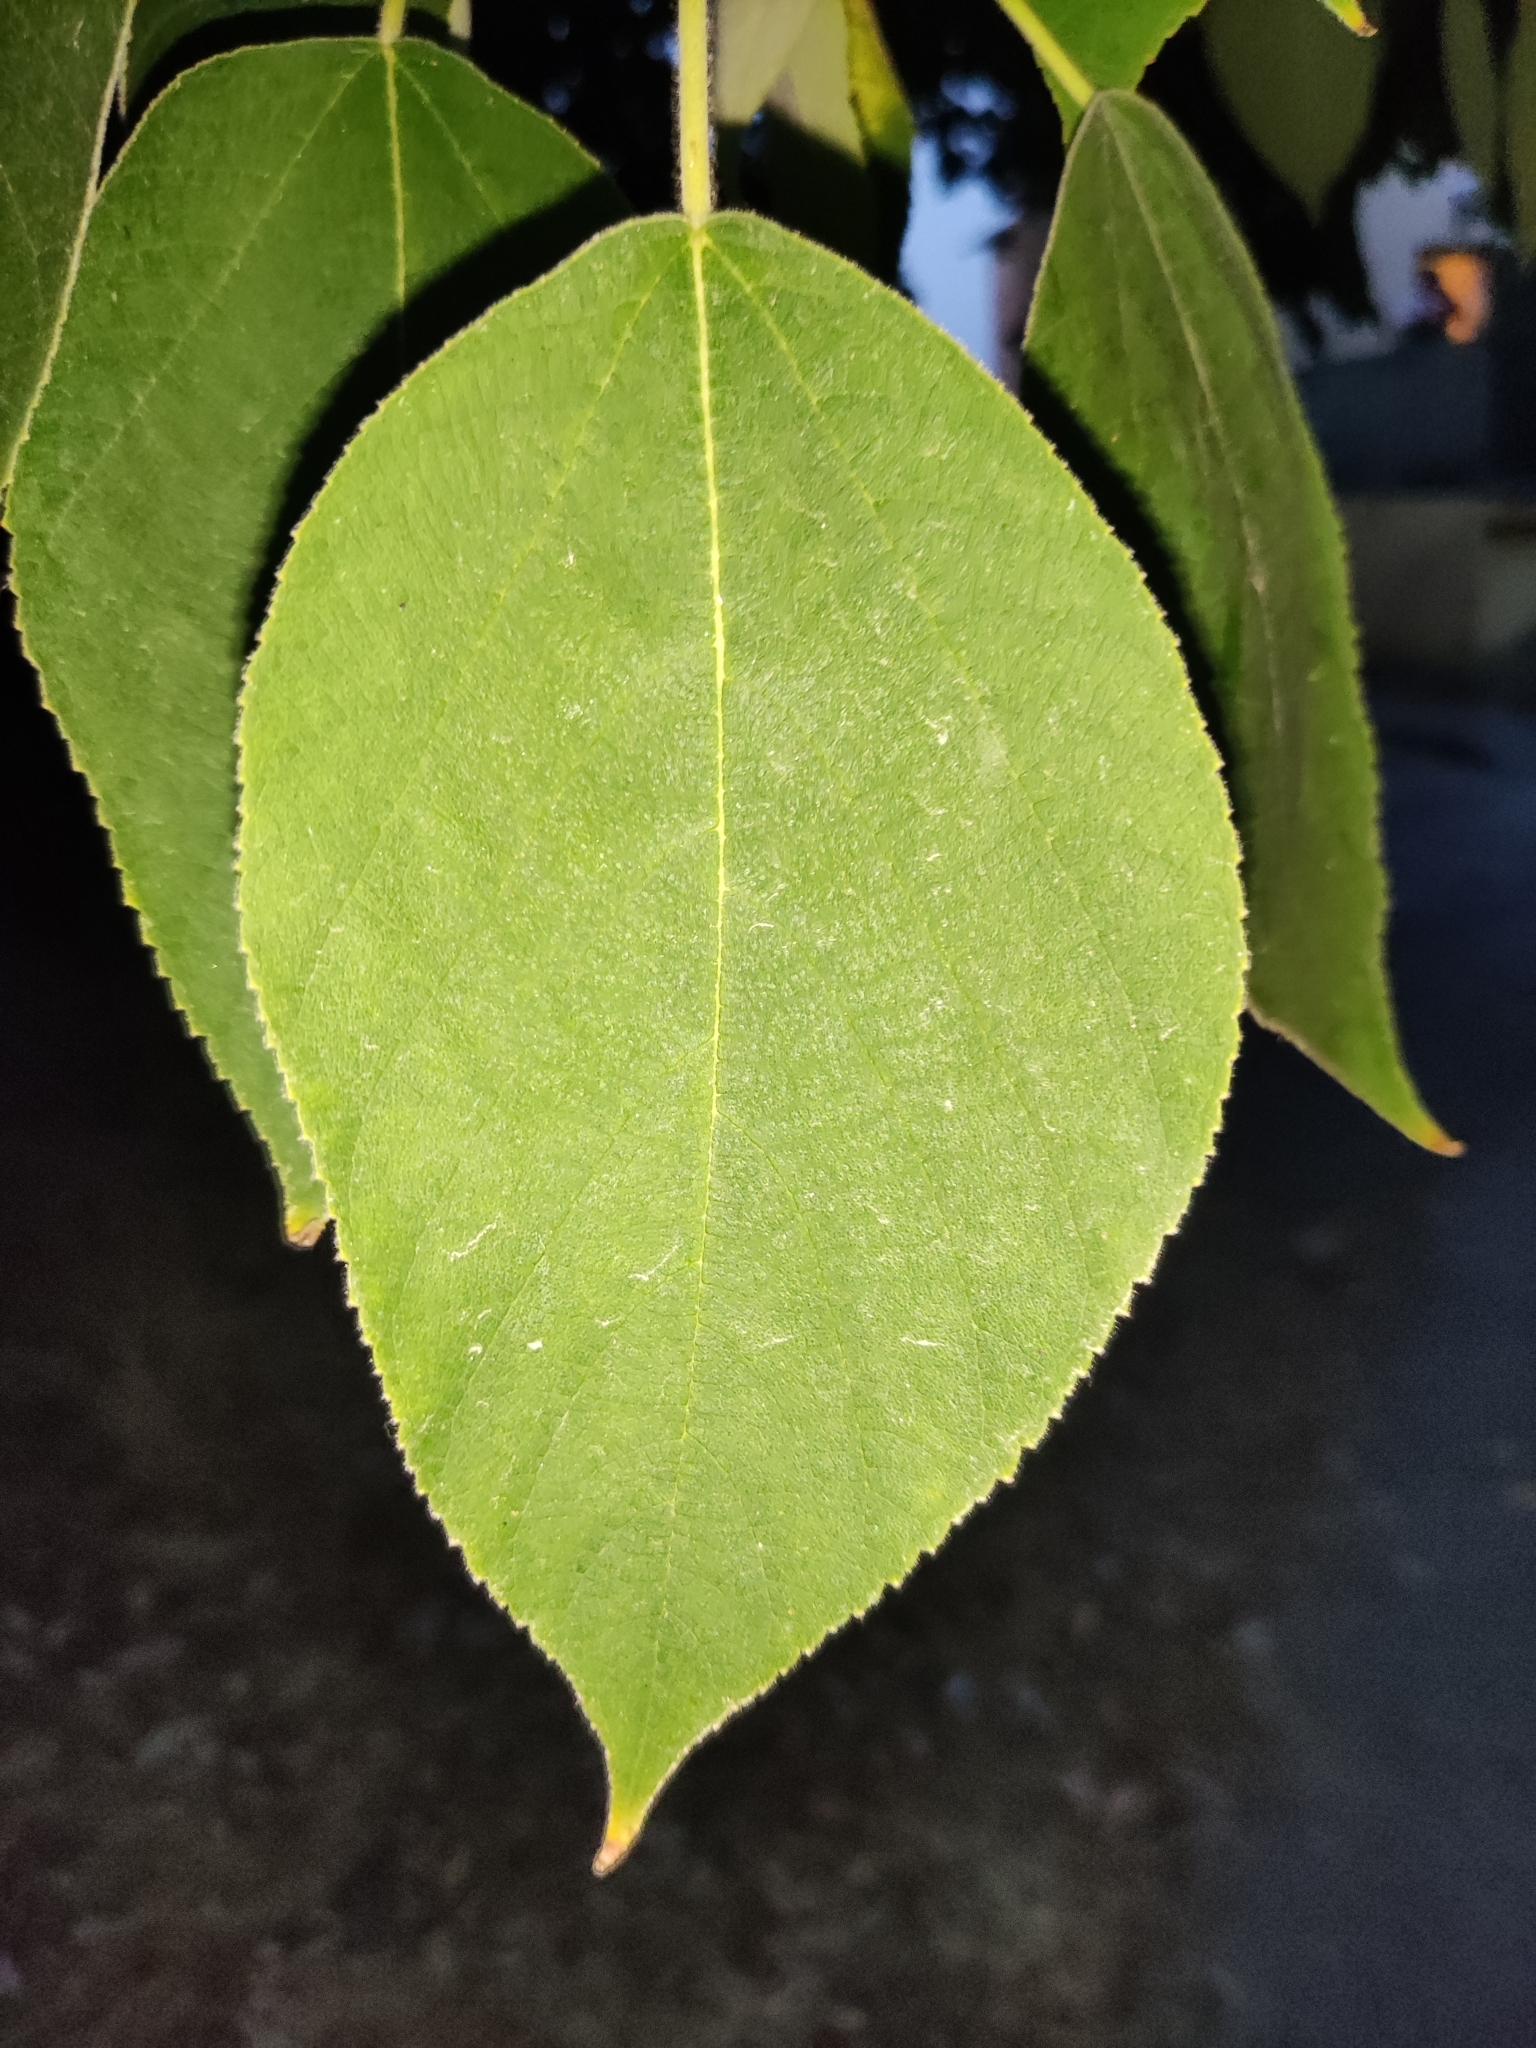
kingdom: Plantae
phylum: Tracheophyta
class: Magnoliopsida
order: Rosales
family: Moraceae
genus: Broussonetia
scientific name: Broussonetia papyrifera
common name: Paper mulberry
